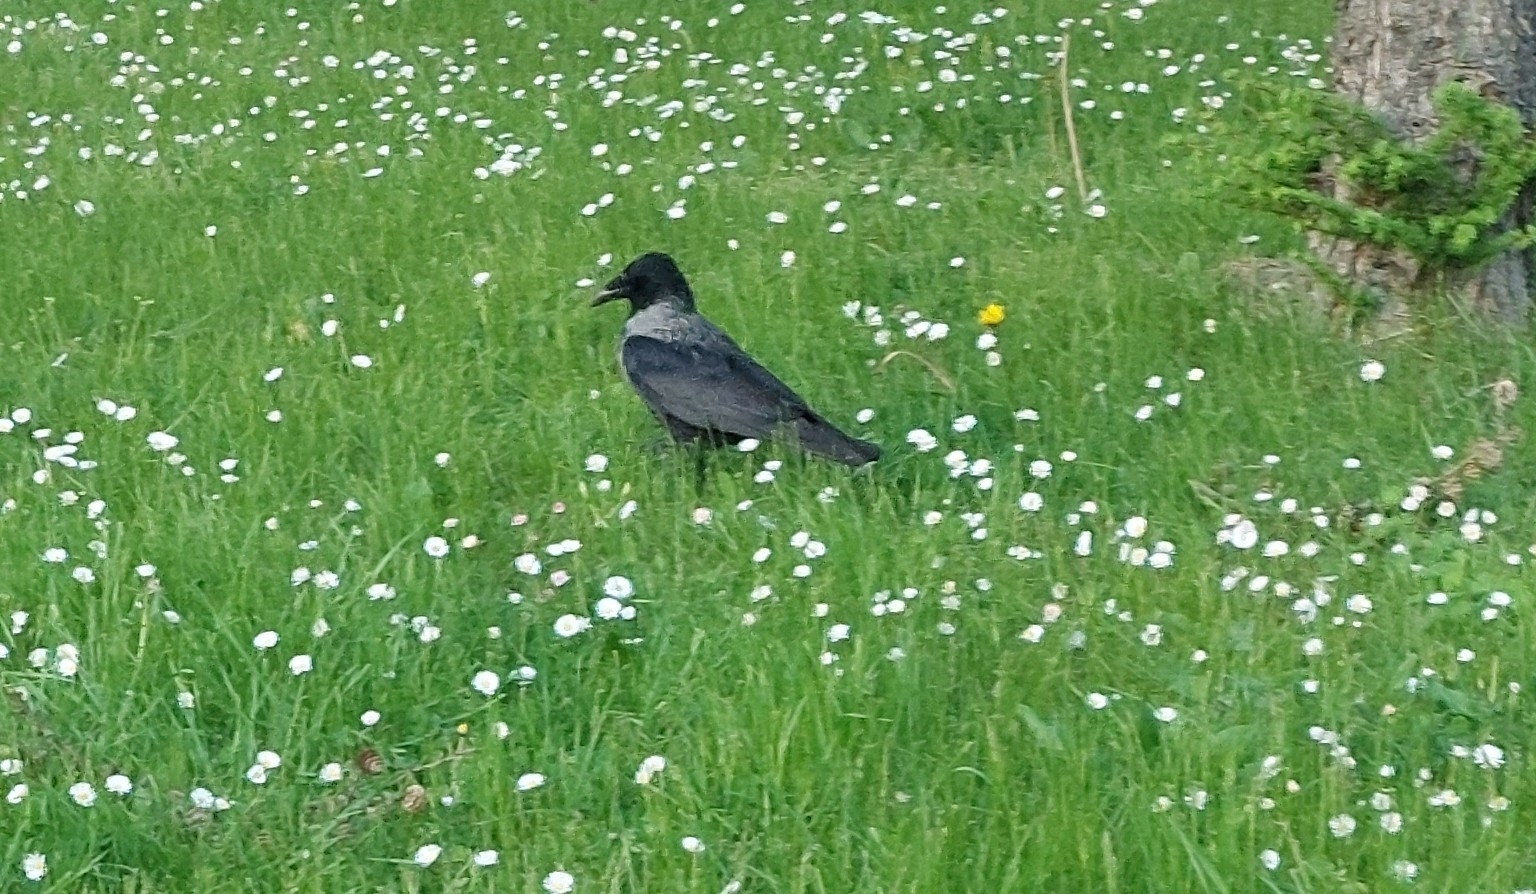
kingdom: Animalia
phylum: Chordata
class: Aves
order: Passeriformes
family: Corvidae
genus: Corvus
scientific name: Corvus
